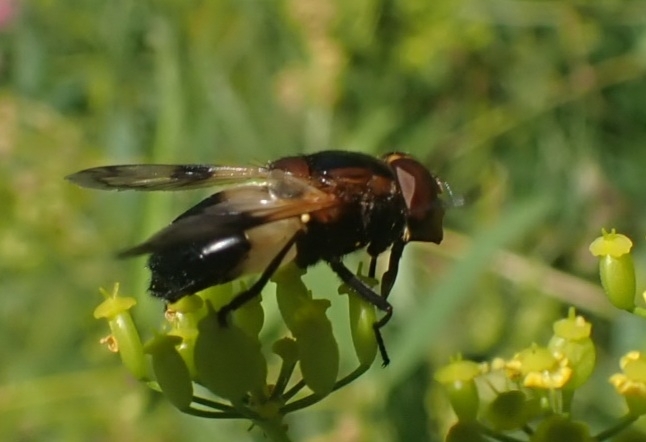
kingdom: Animalia
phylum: Arthropoda
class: Insecta
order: Diptera
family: Syrphidae
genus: Volucella
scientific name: Volucella pellucens
